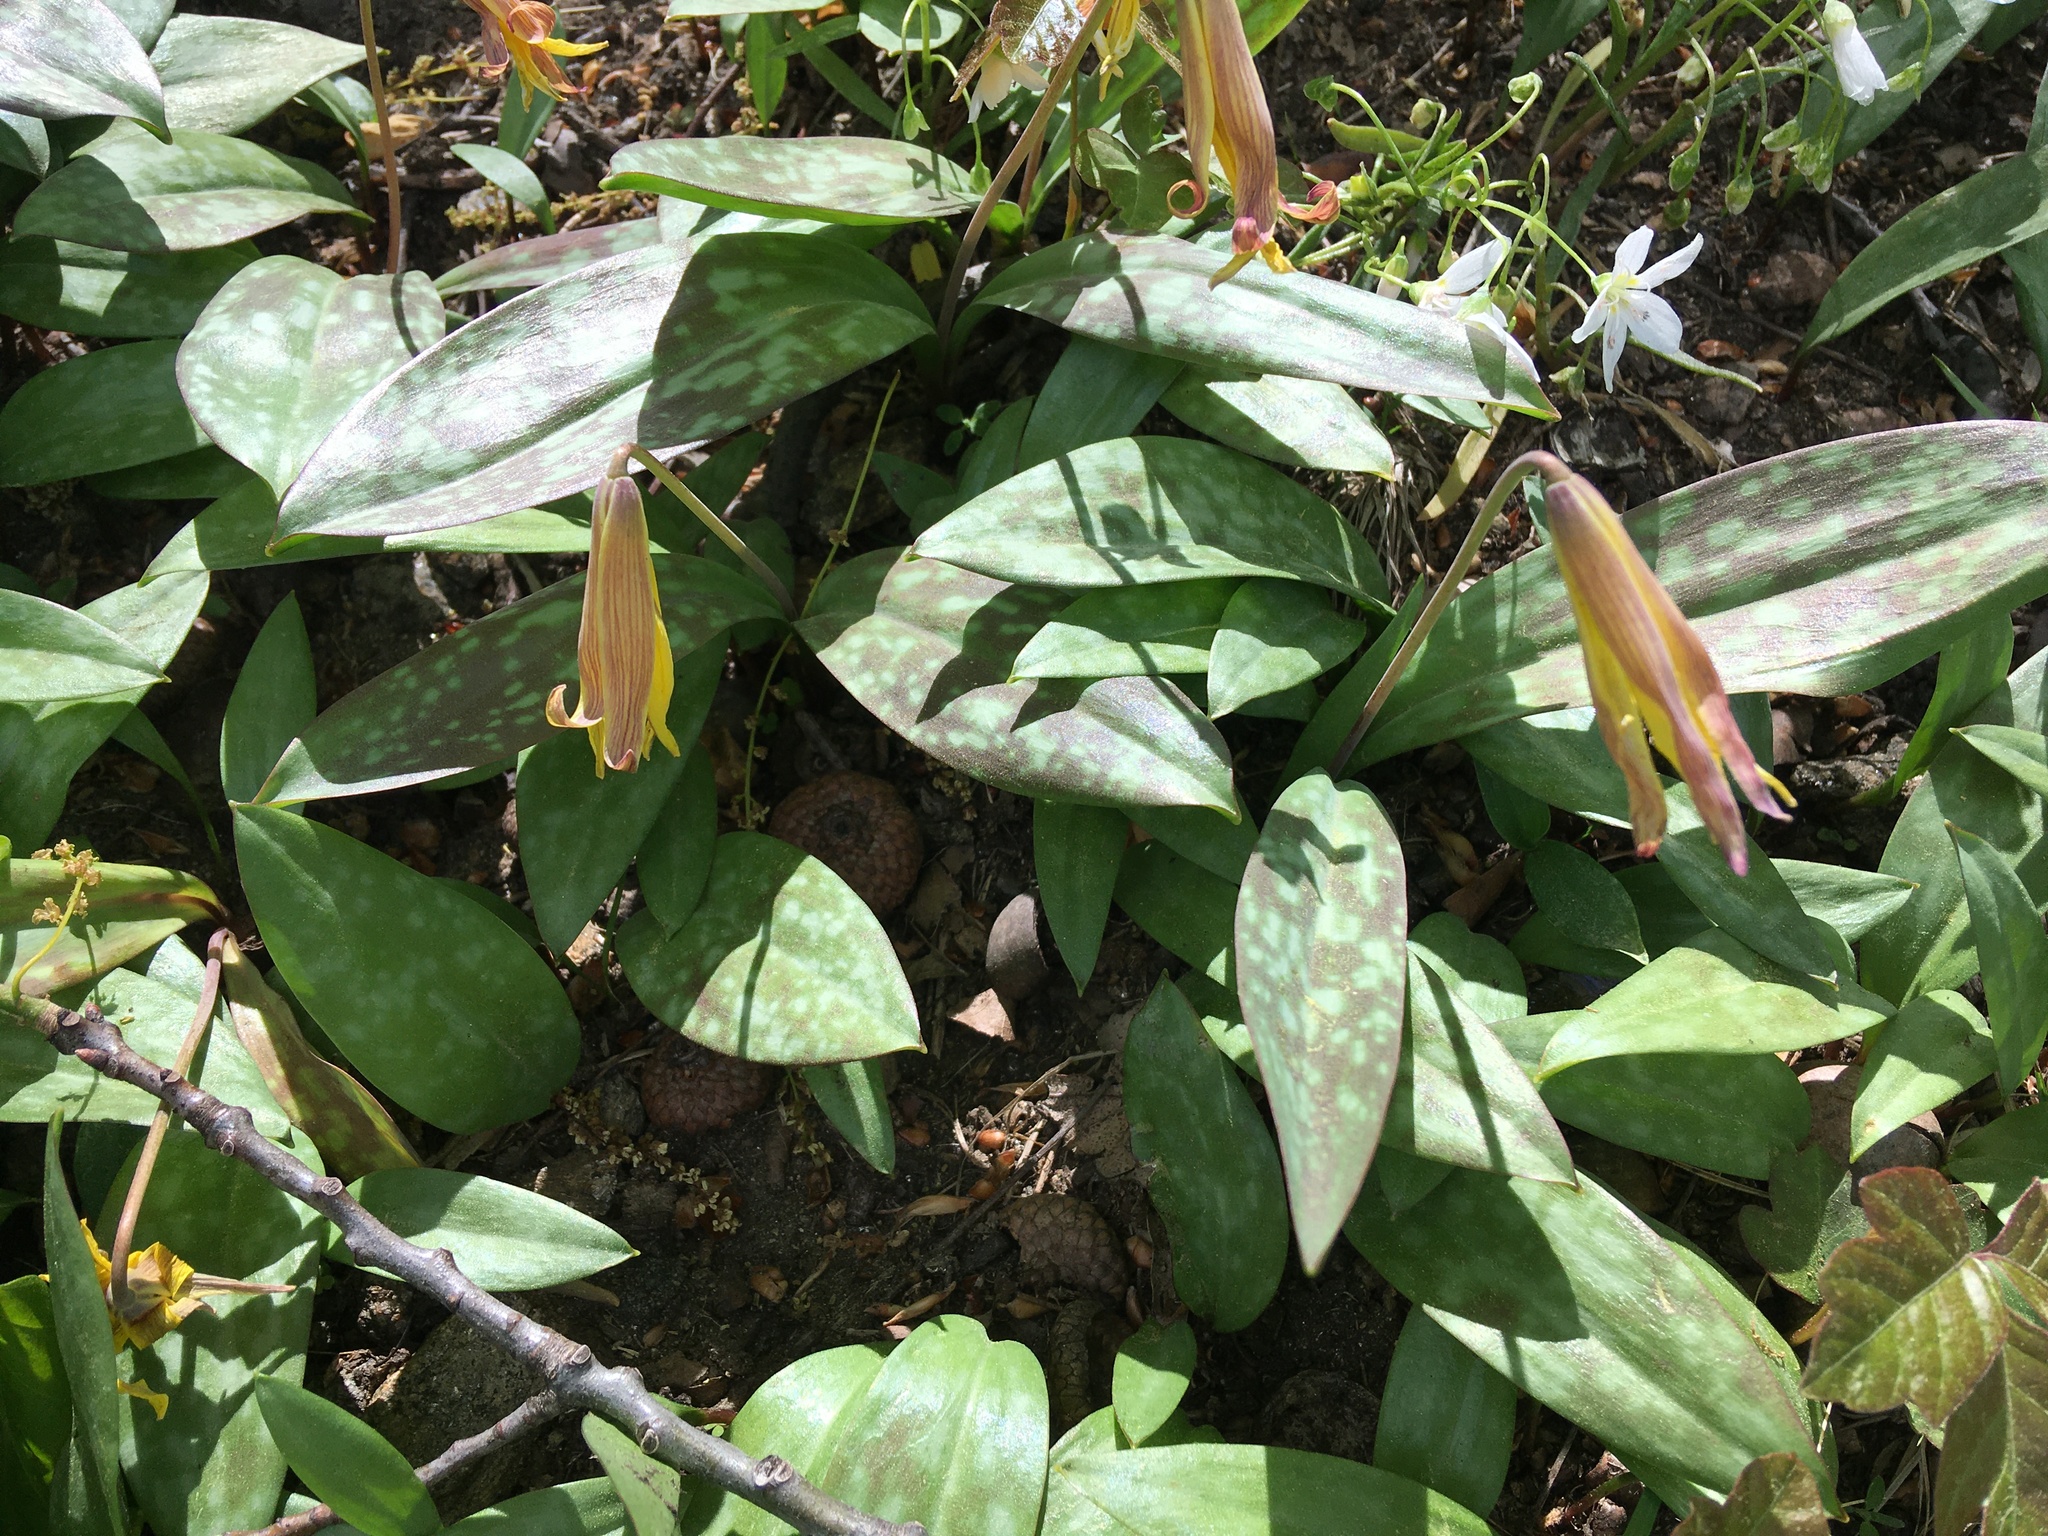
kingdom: Plantae
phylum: Tracheophyta
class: Liliopsida
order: Liliales
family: Liliaceae
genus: Erythronium
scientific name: Erythronium americanum
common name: Yellow adder's-tongue
